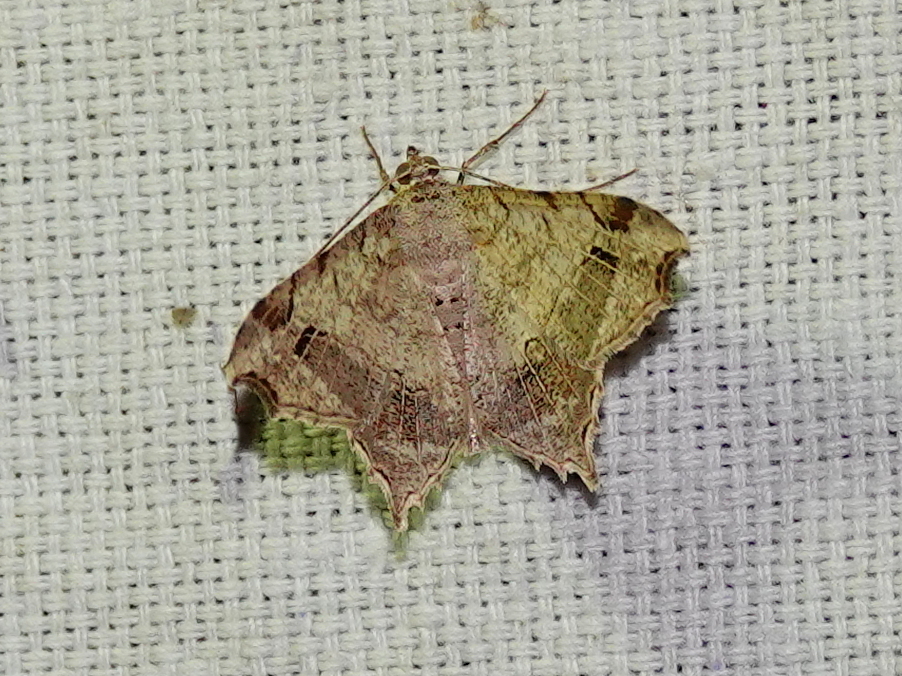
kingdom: Animalia
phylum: Arthropoda
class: Insecta
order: Lepidoptera
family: Geometridae
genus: Chiasmia
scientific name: Chiasmia emersaria
